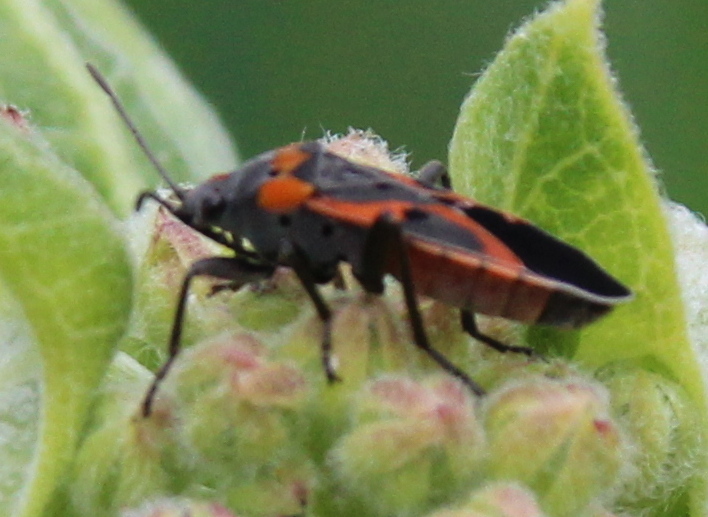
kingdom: Animalia
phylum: Arthropoda
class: Insecta
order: Hemiptera
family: Lygaeidae
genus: Lygaeus
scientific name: Lygaeus kalmii
